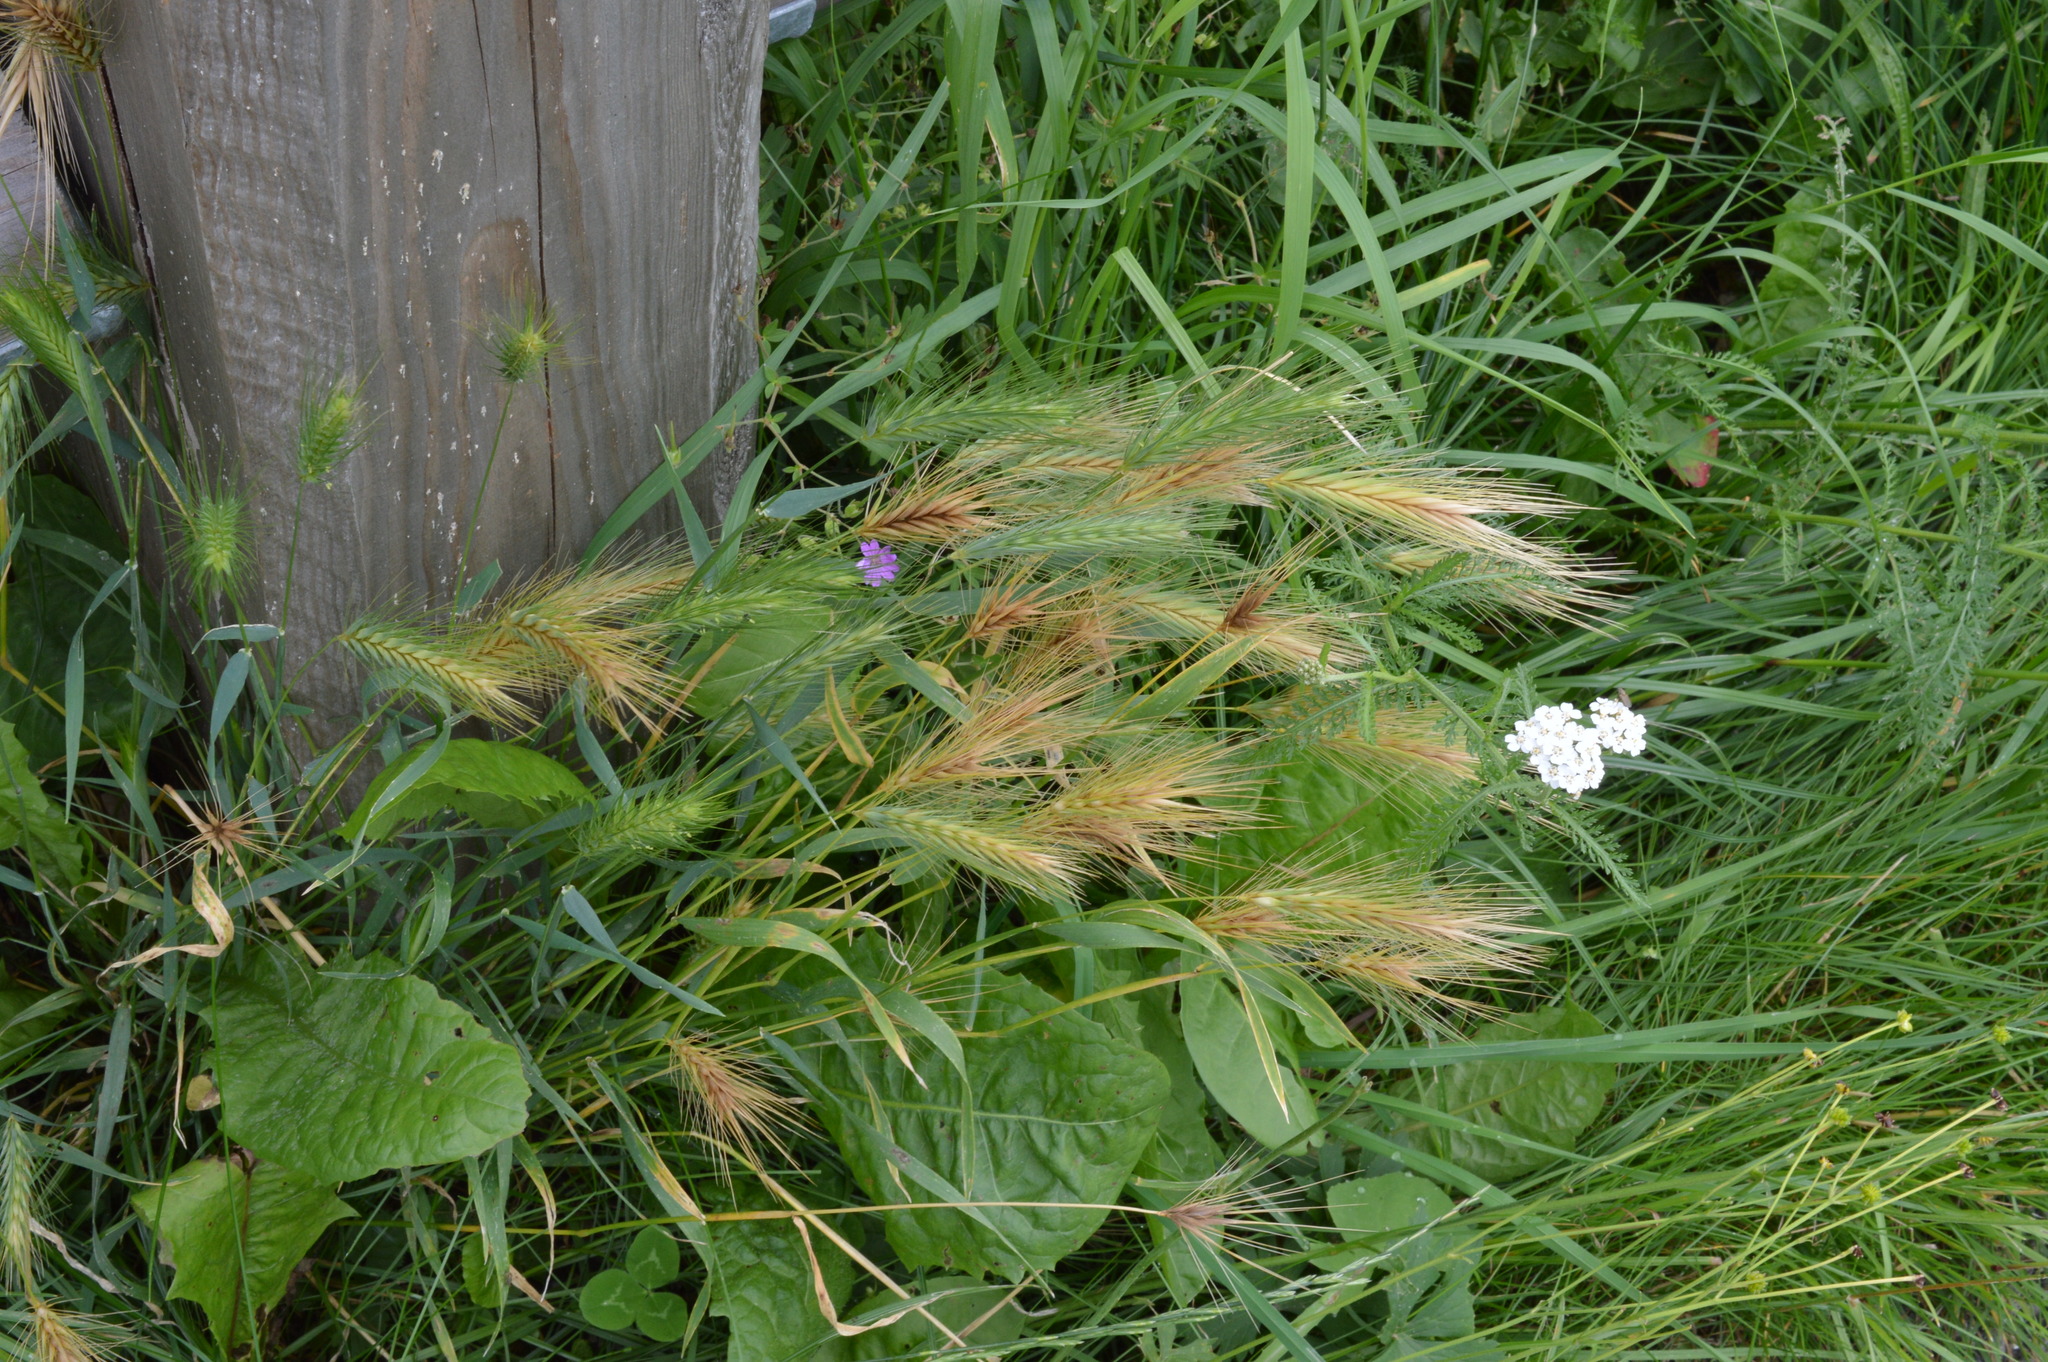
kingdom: Plantae
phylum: Tracheophyta
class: Liliopsida
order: Poales
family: Poaceae
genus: Hordeum
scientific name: Hordeum murinum
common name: Wall barley
